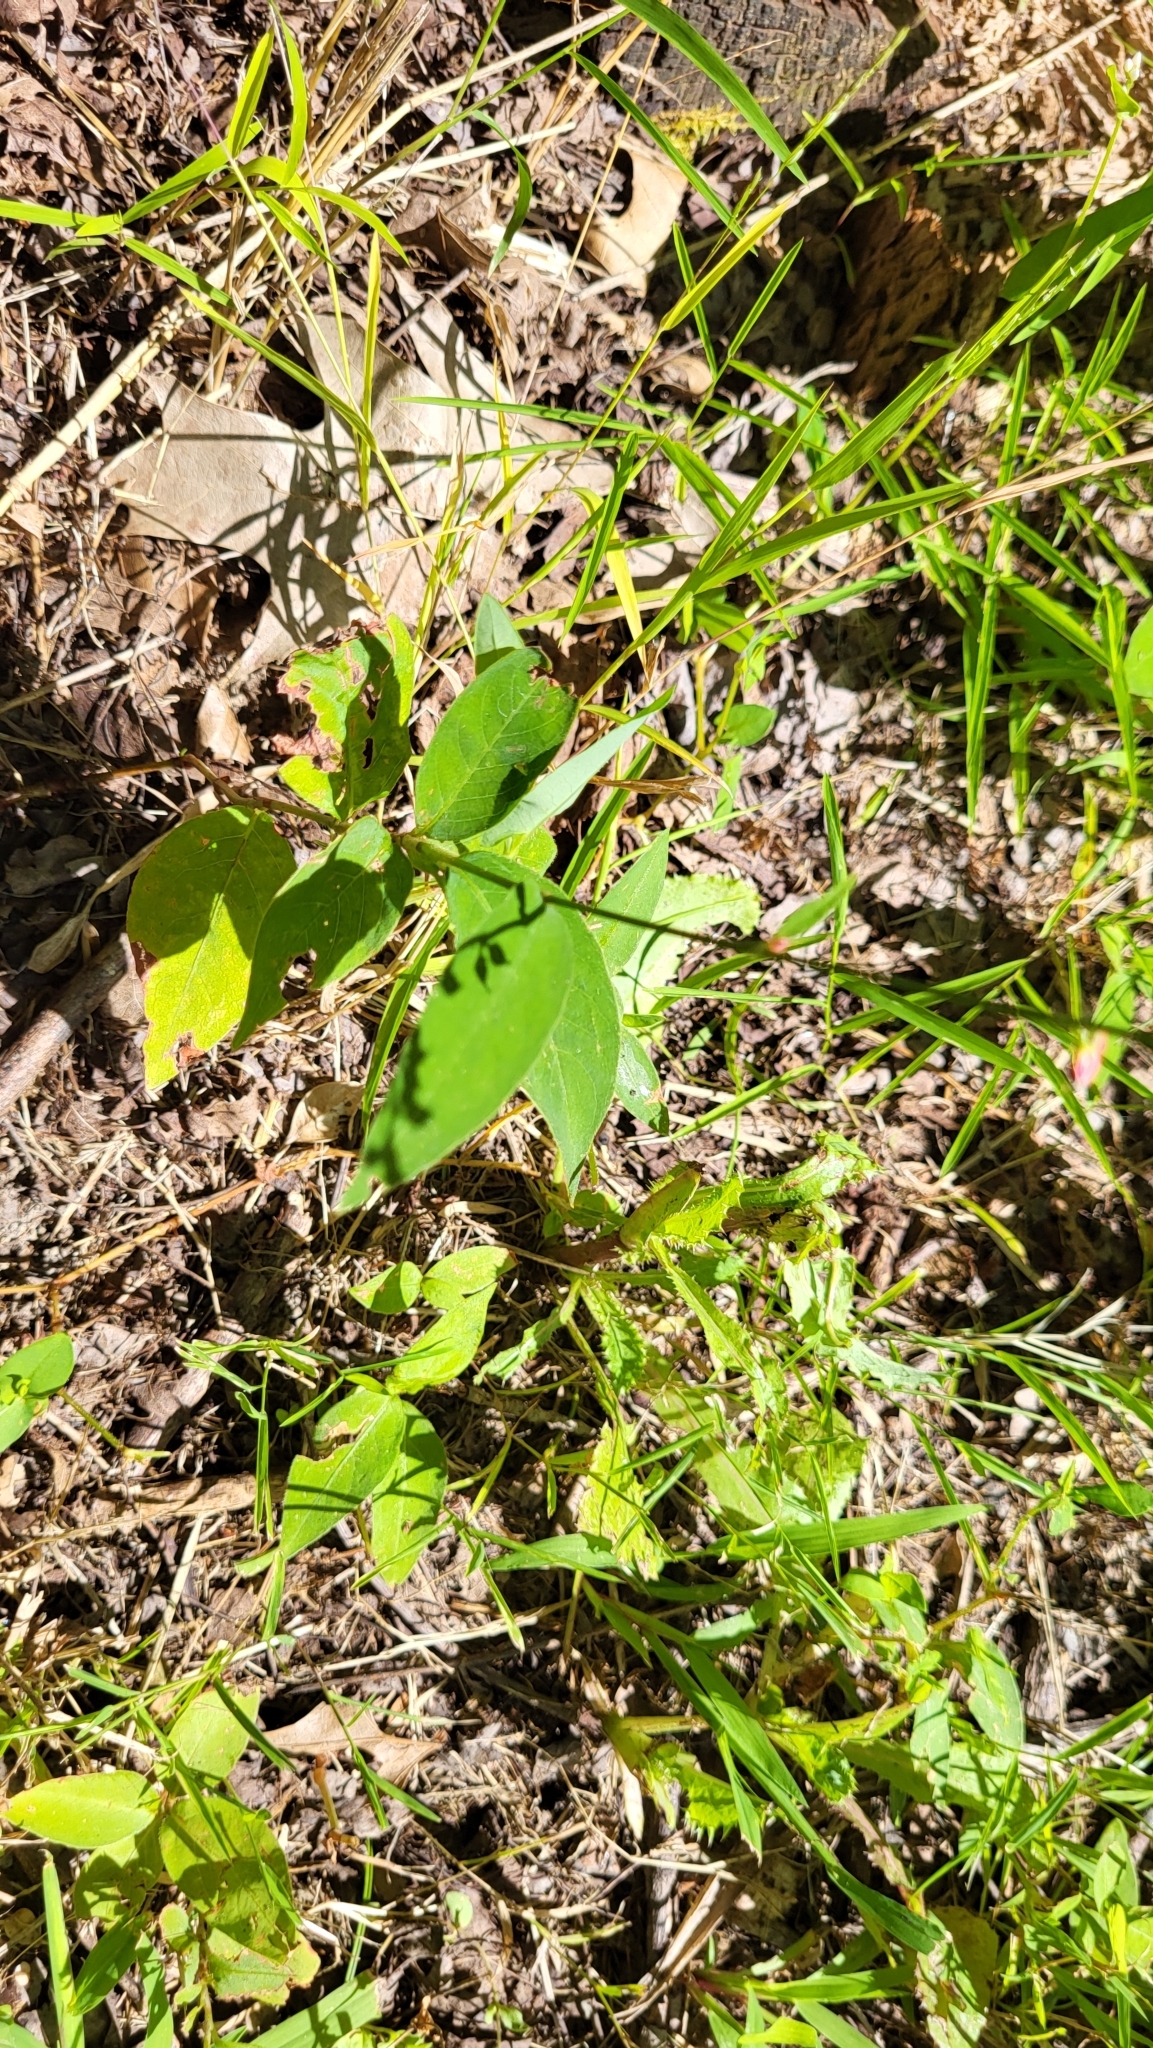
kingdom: Plantae
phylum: Tracheophyta
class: Magnoliopsida
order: Caryophyllales
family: Polygonaceae
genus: Persicaria
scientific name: Persicaria virginiana
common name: Jumpseed
